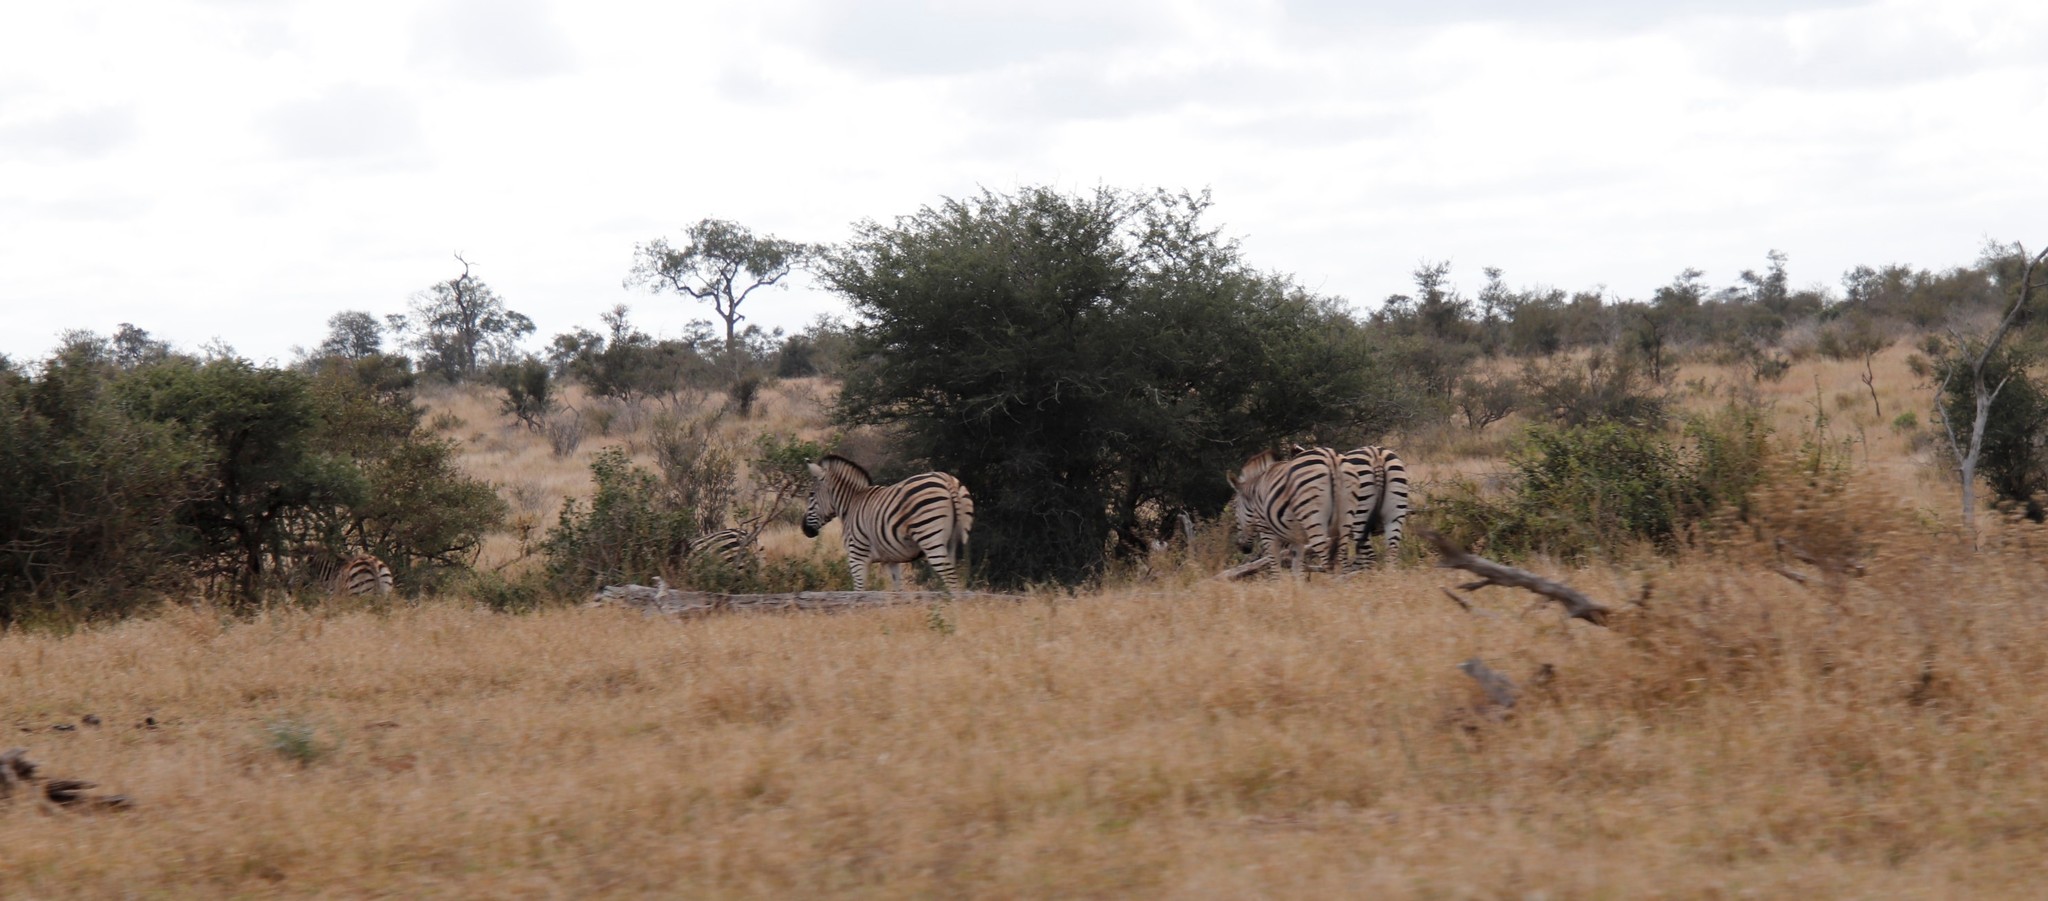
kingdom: Animalia
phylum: Chordata
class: Mammalia
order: Perissodactyla
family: Equidae
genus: Equus
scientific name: Equus quagga
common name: Plains zebra
